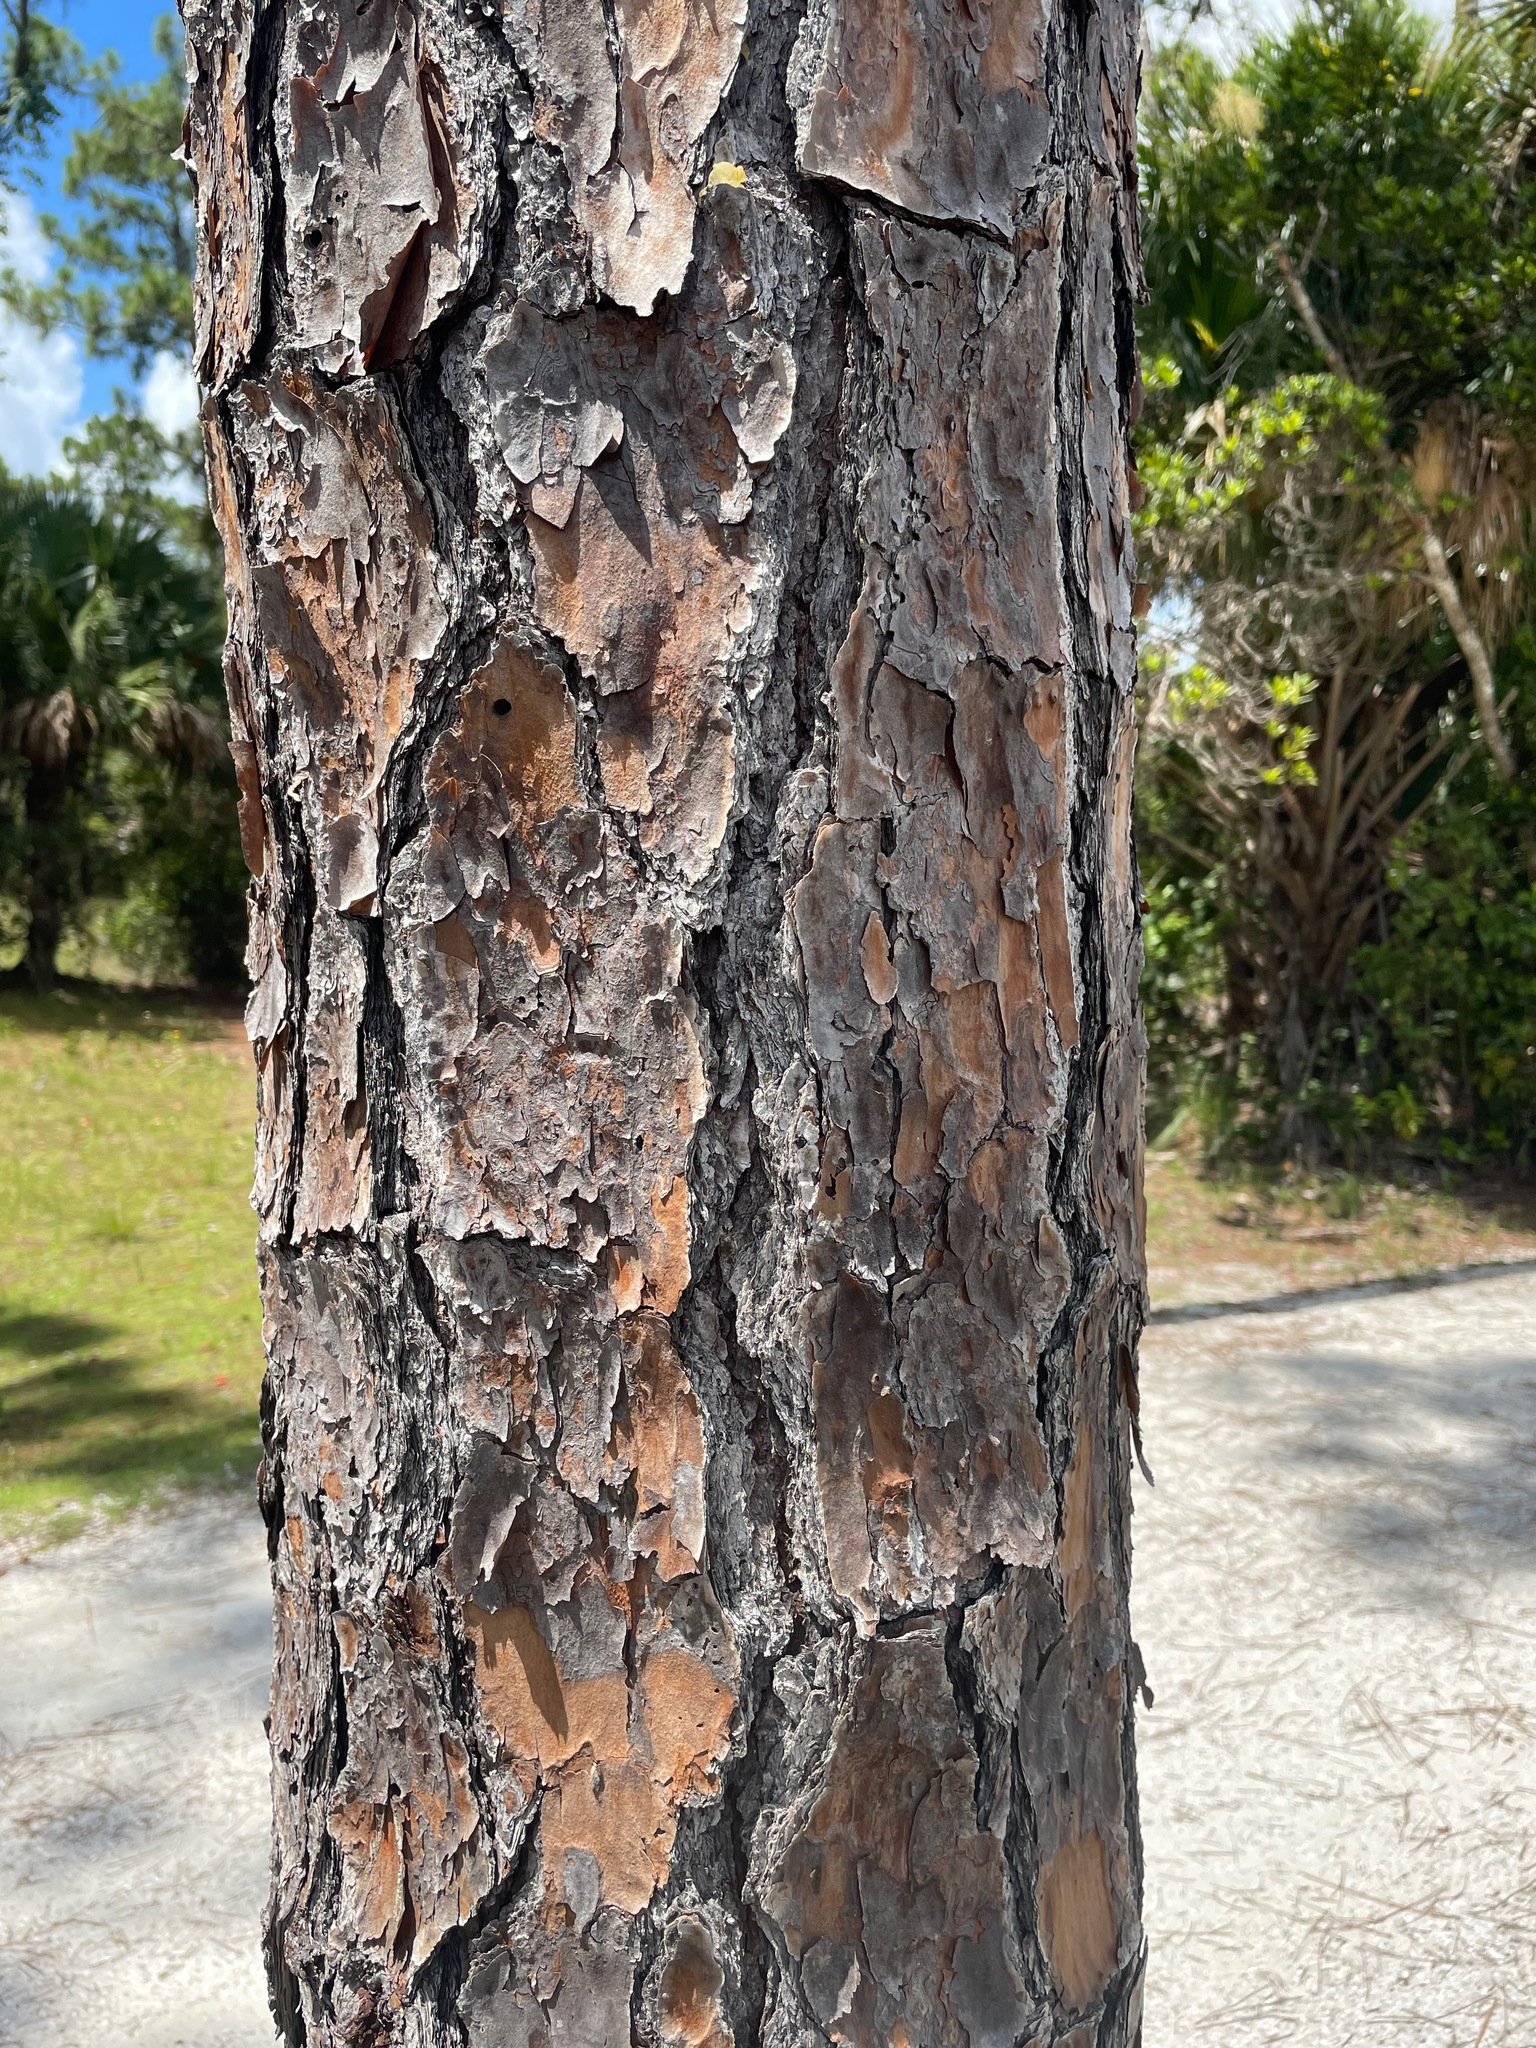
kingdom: Plantae
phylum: Tracheophyta
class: Pinopsida
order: Pinales
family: Pinaceae
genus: Pinus
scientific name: Pinus elliottii
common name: Slash pine
